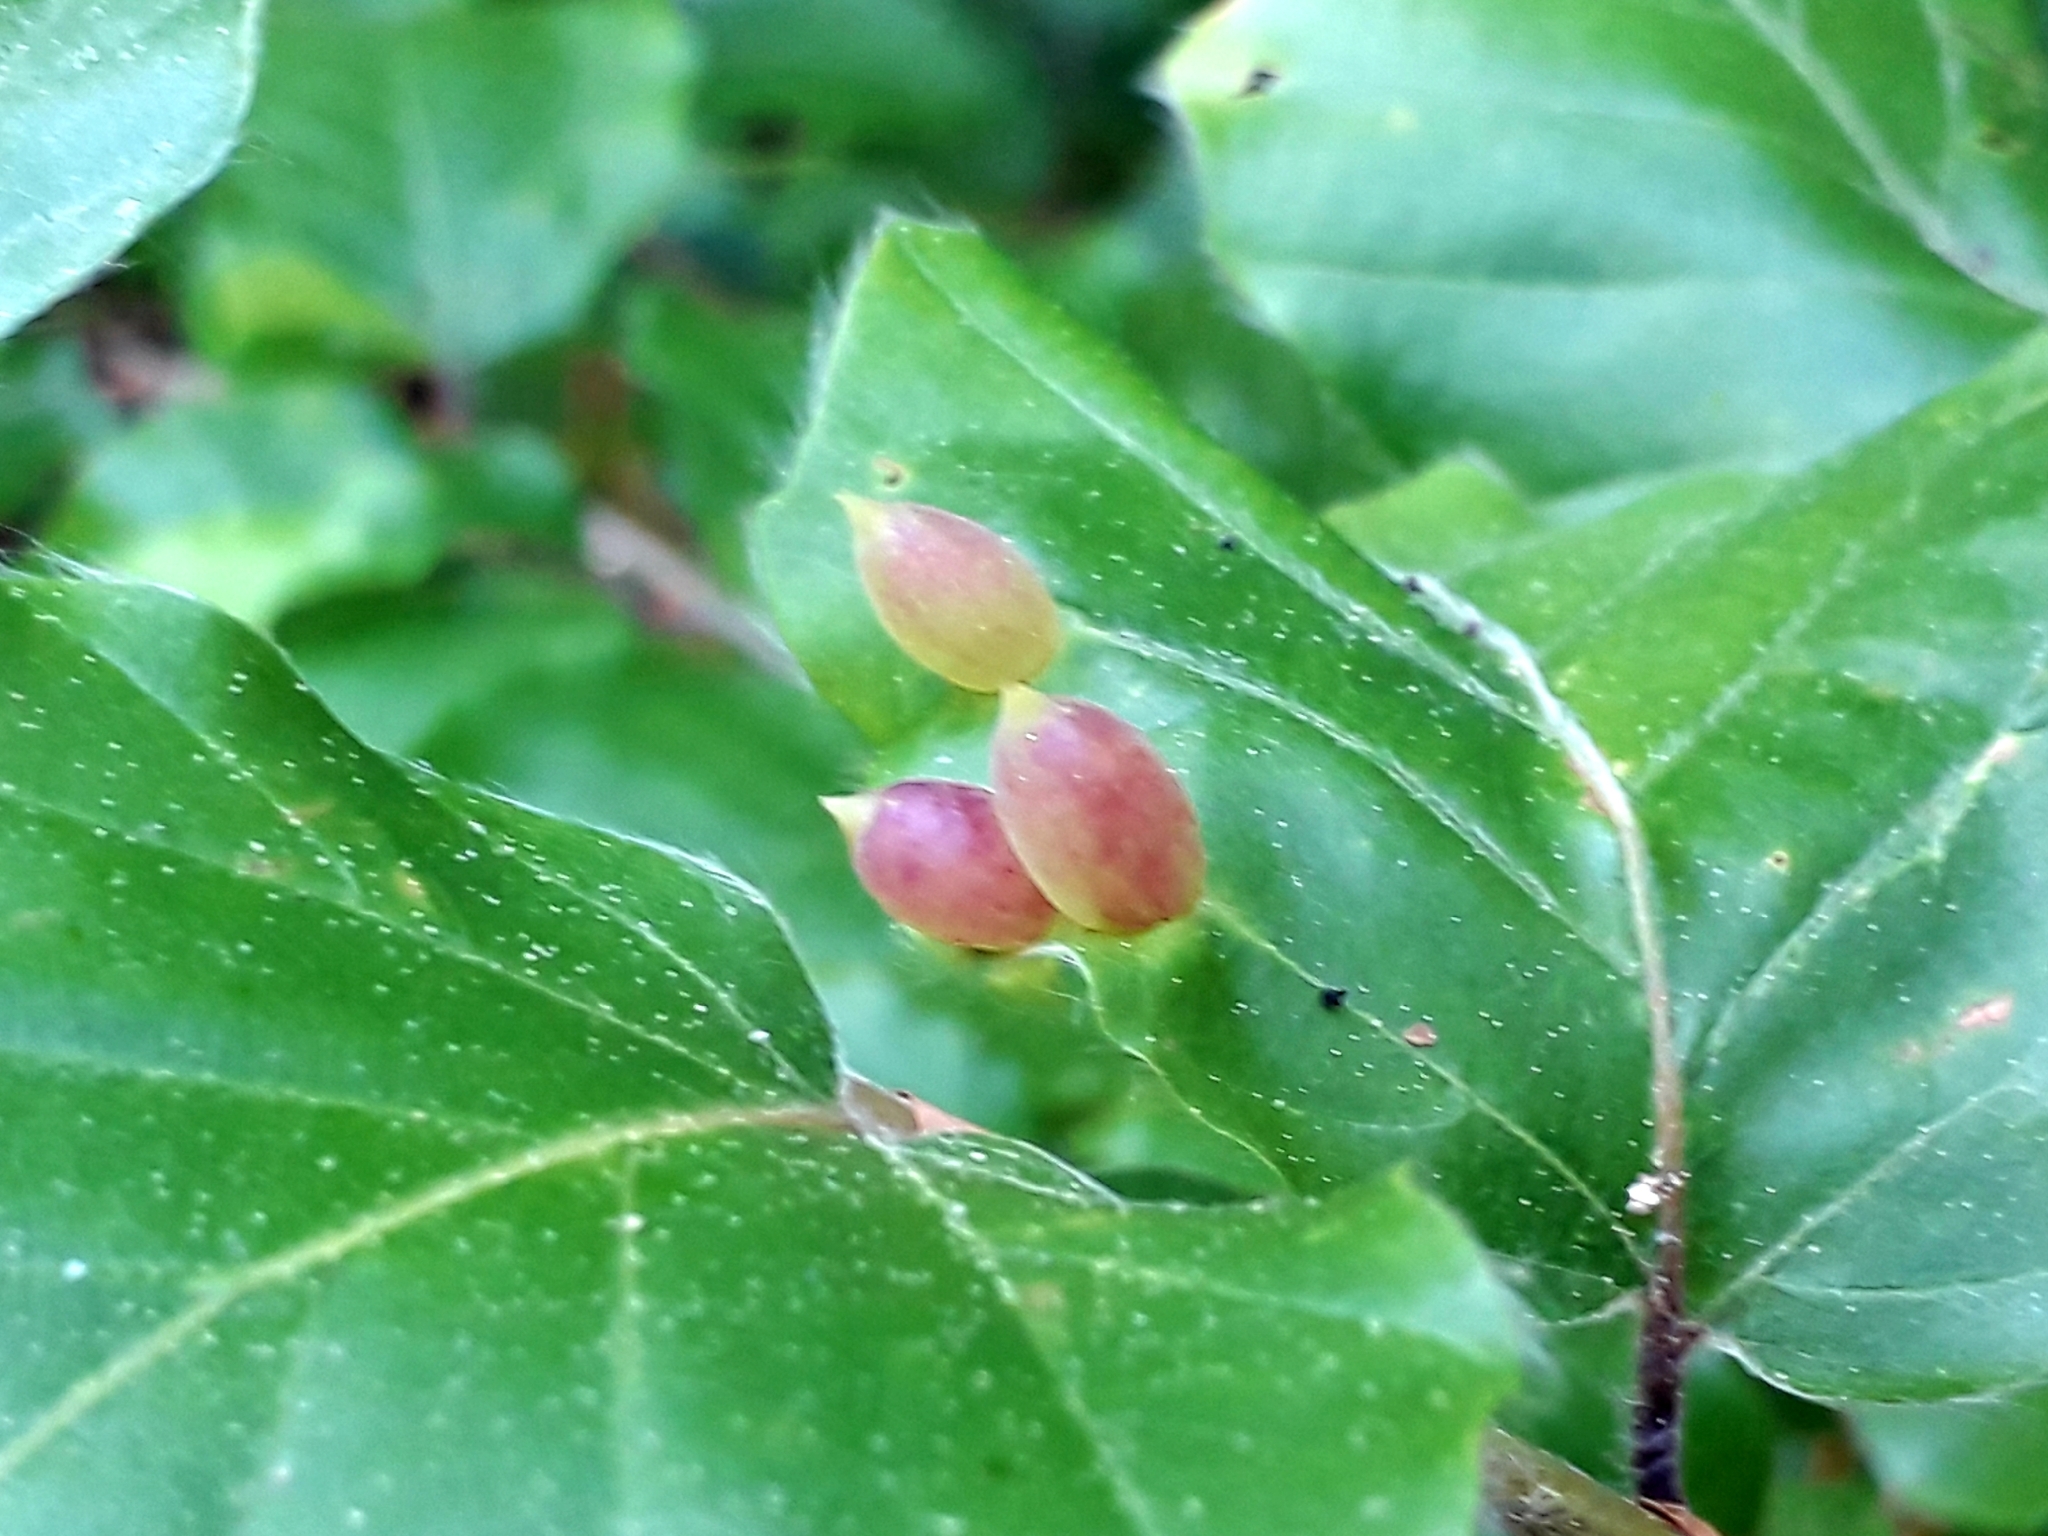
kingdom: Animalia
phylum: Arthropoda
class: Insecta
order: Diptera
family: Cecidomyiidae
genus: Mikiola
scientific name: Mikiola fagi
